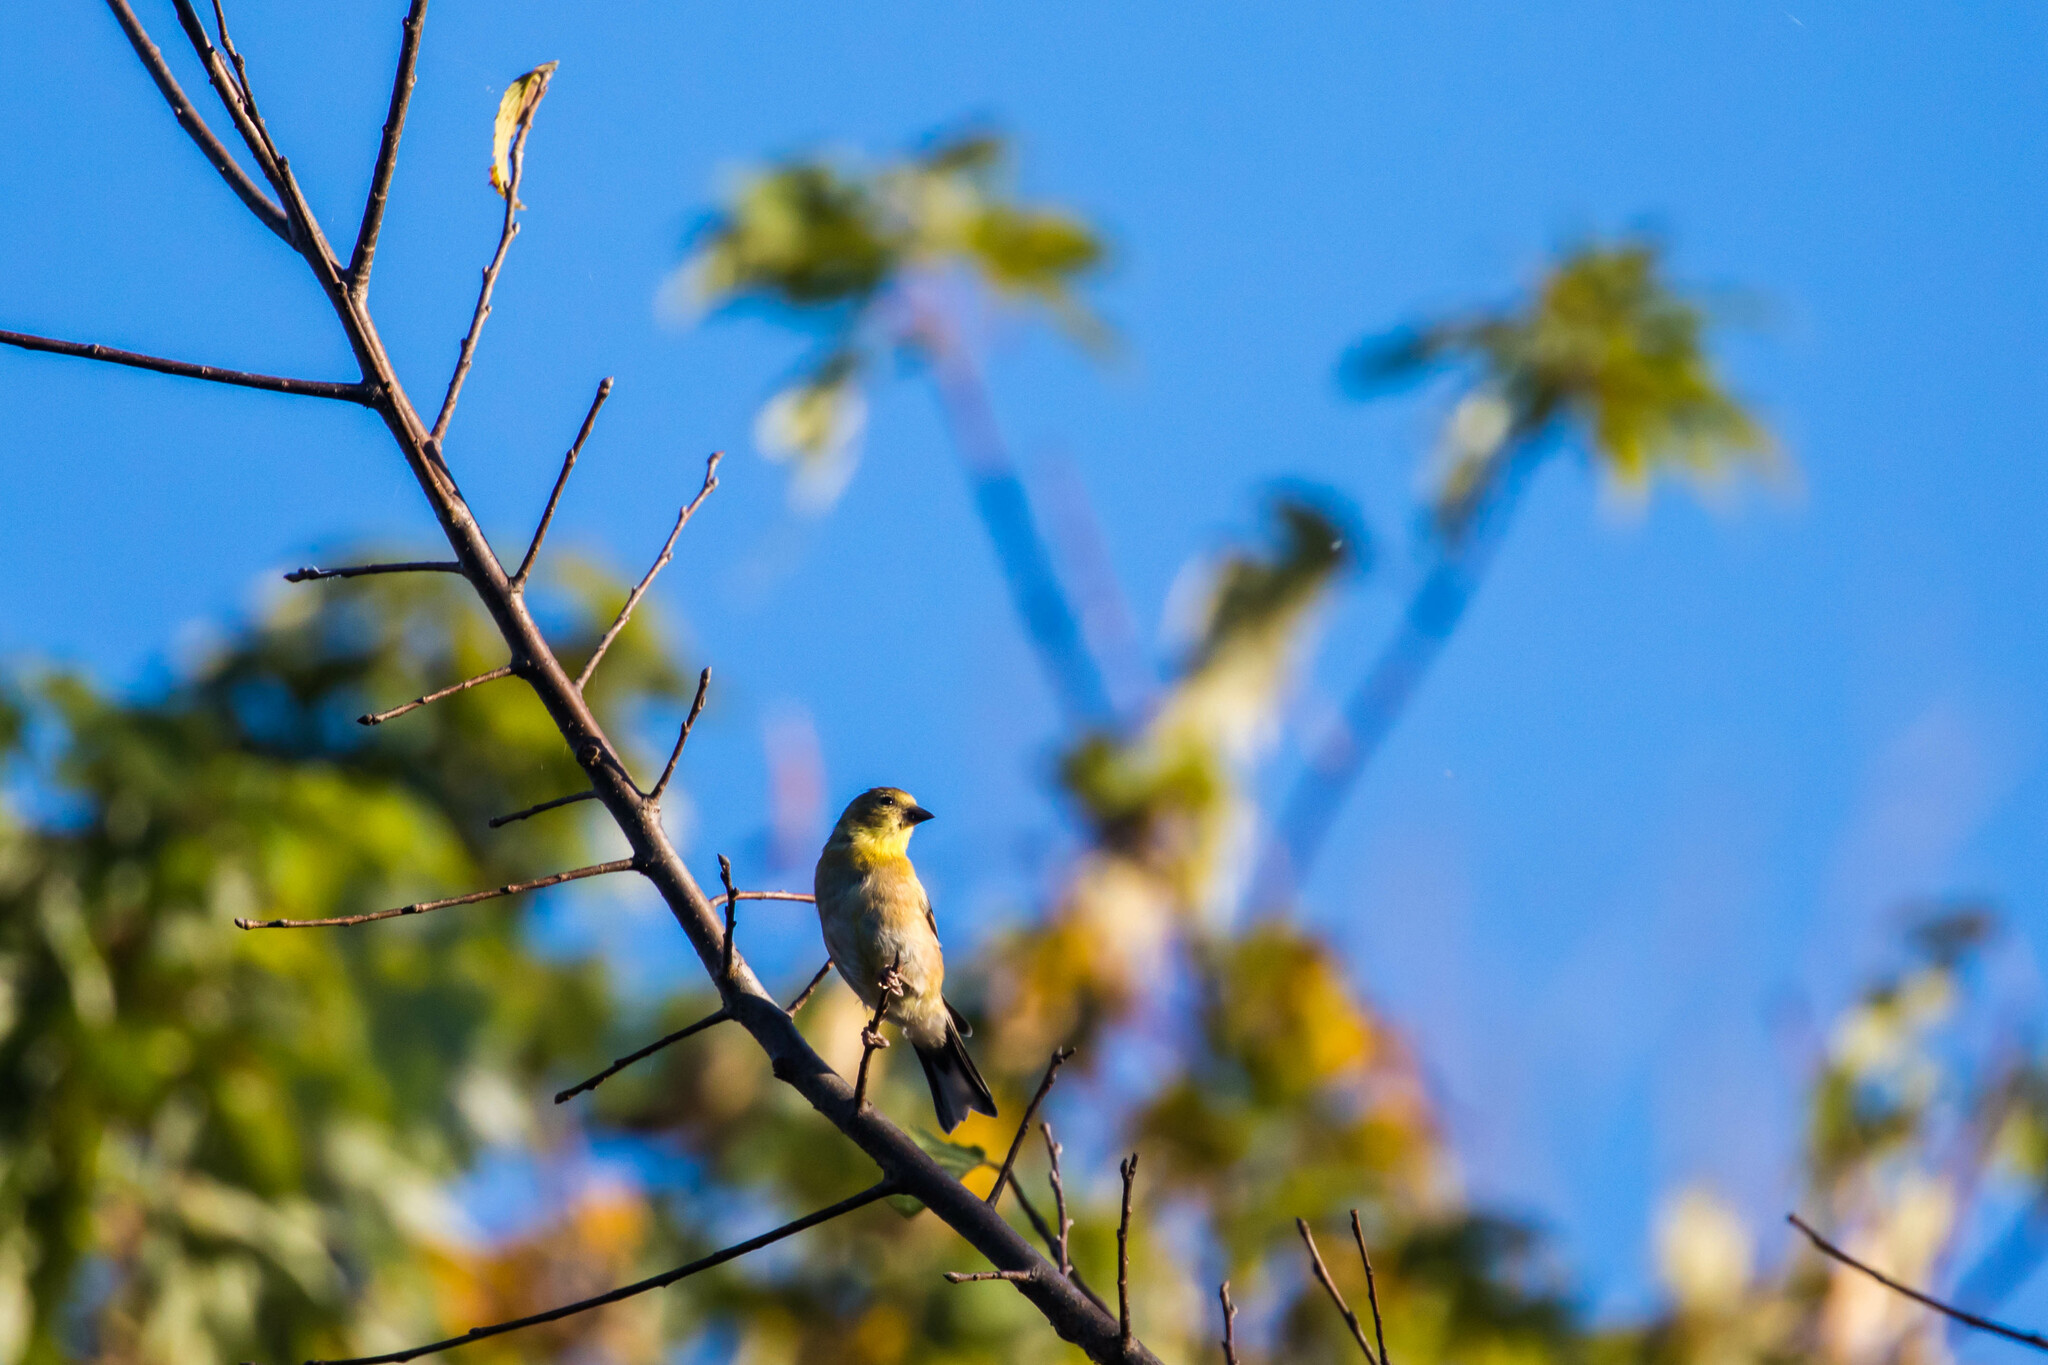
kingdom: Animalia
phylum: Chordata
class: Aves
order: Passeriformes
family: Fringillidae
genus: Spinus
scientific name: Spinus tristis
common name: American goldfinch
